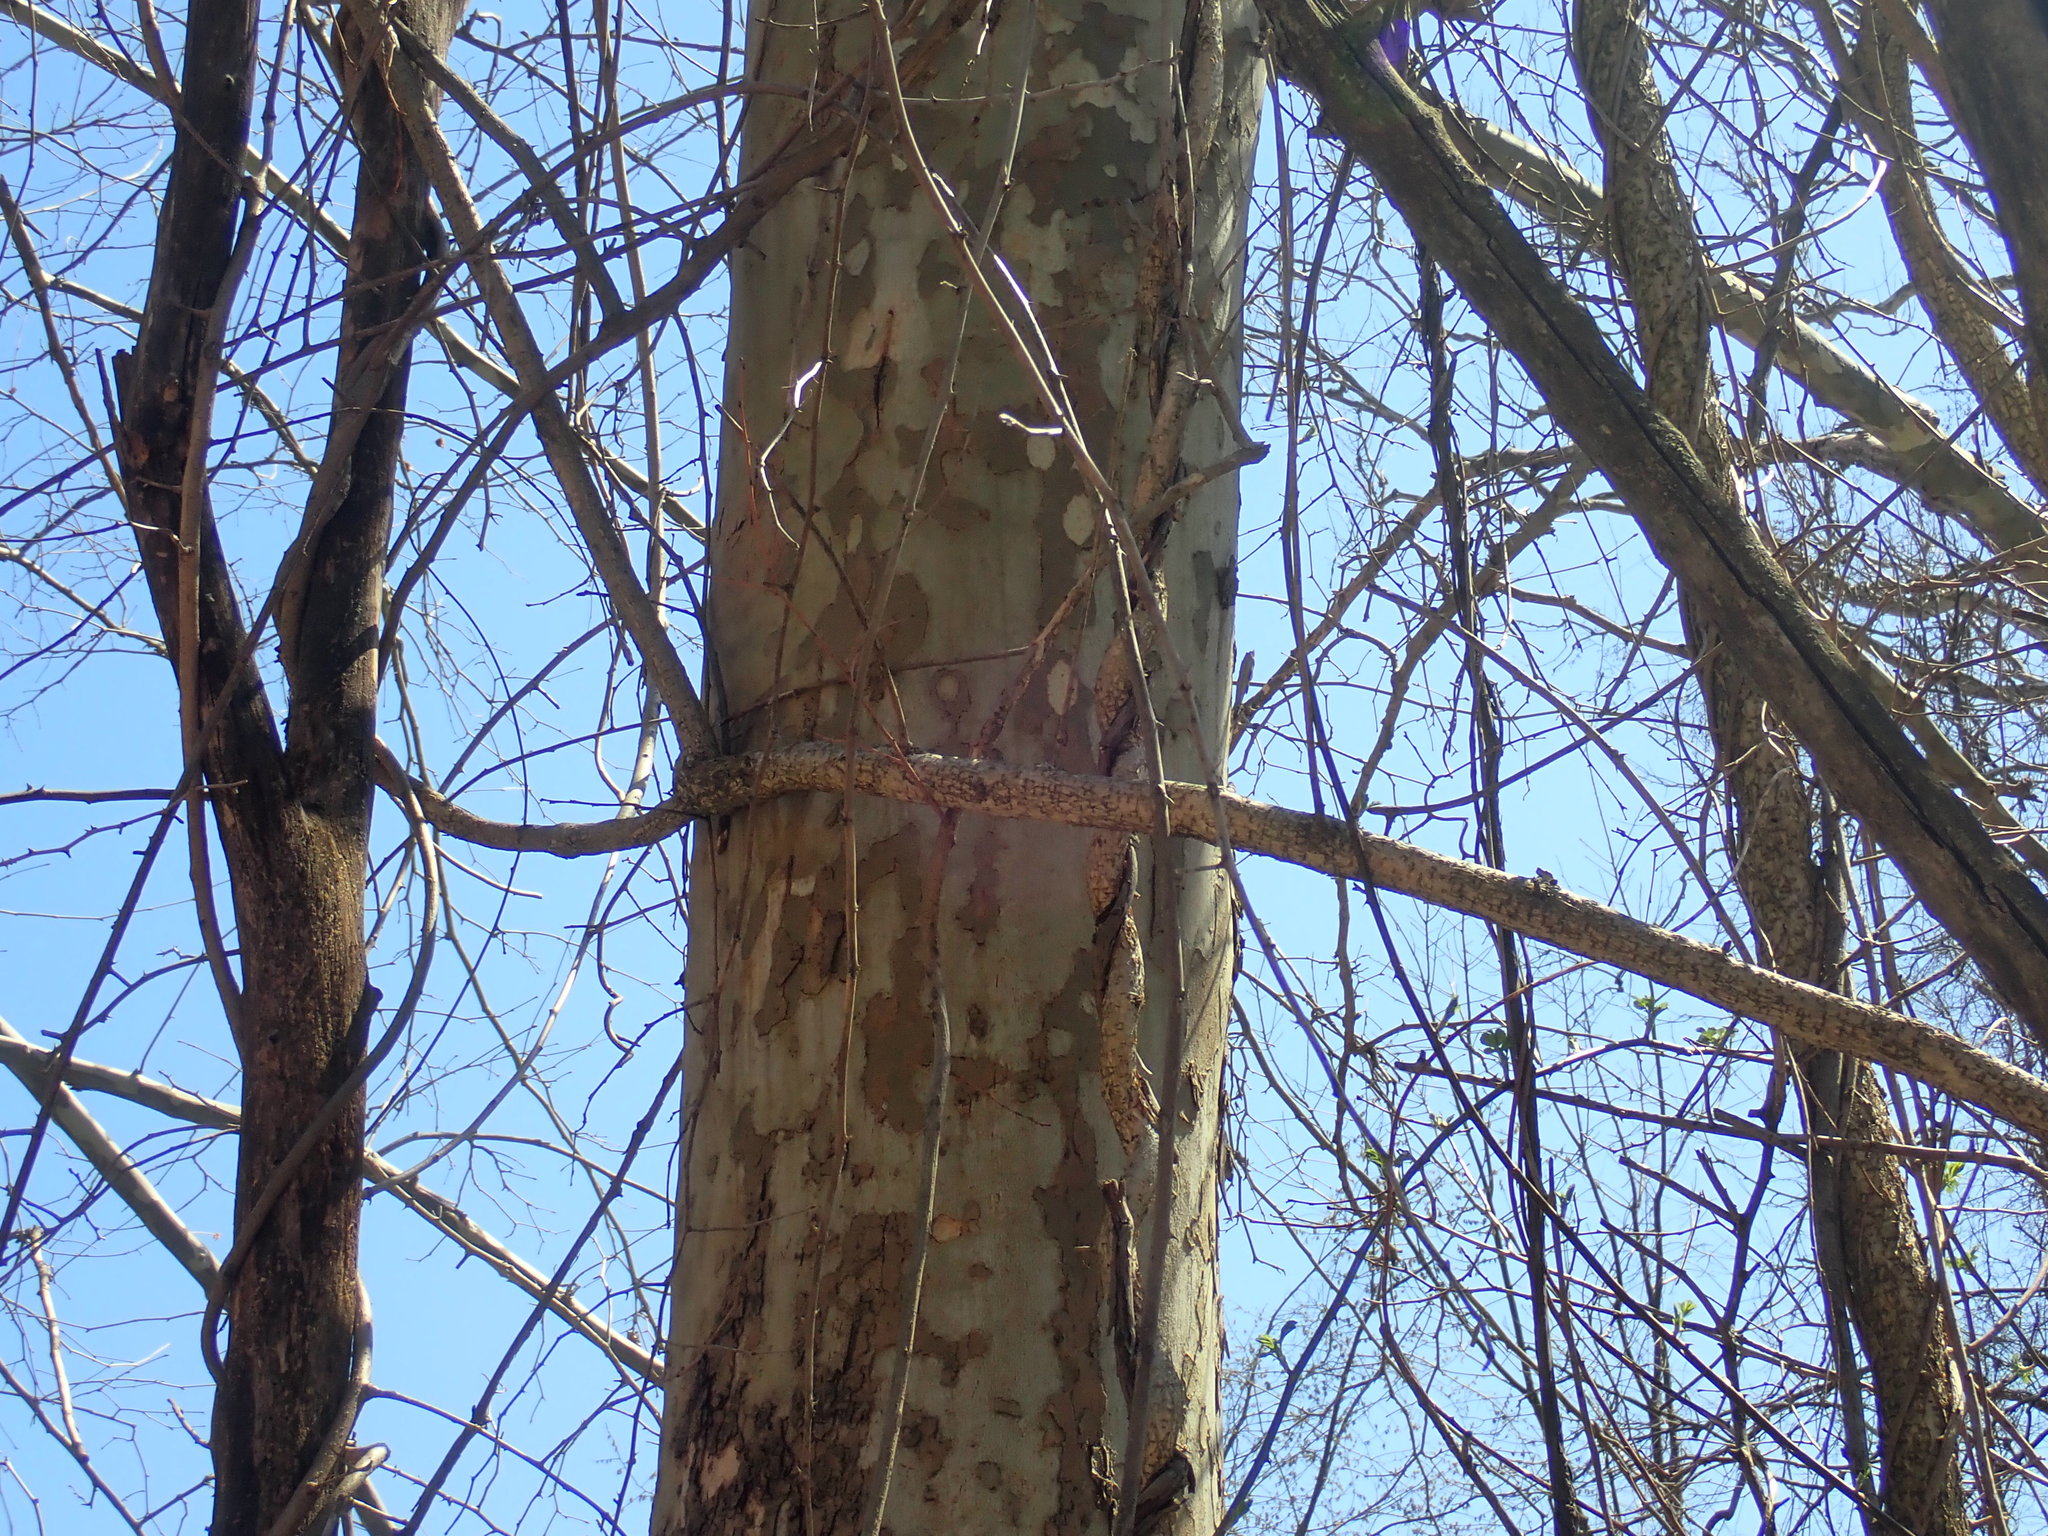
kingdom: Plantae
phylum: Tracheophyta
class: Magnoliopsida
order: Proteales
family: Platanaceae
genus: Platanus
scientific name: Platanus occidentalis
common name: American sycamore
